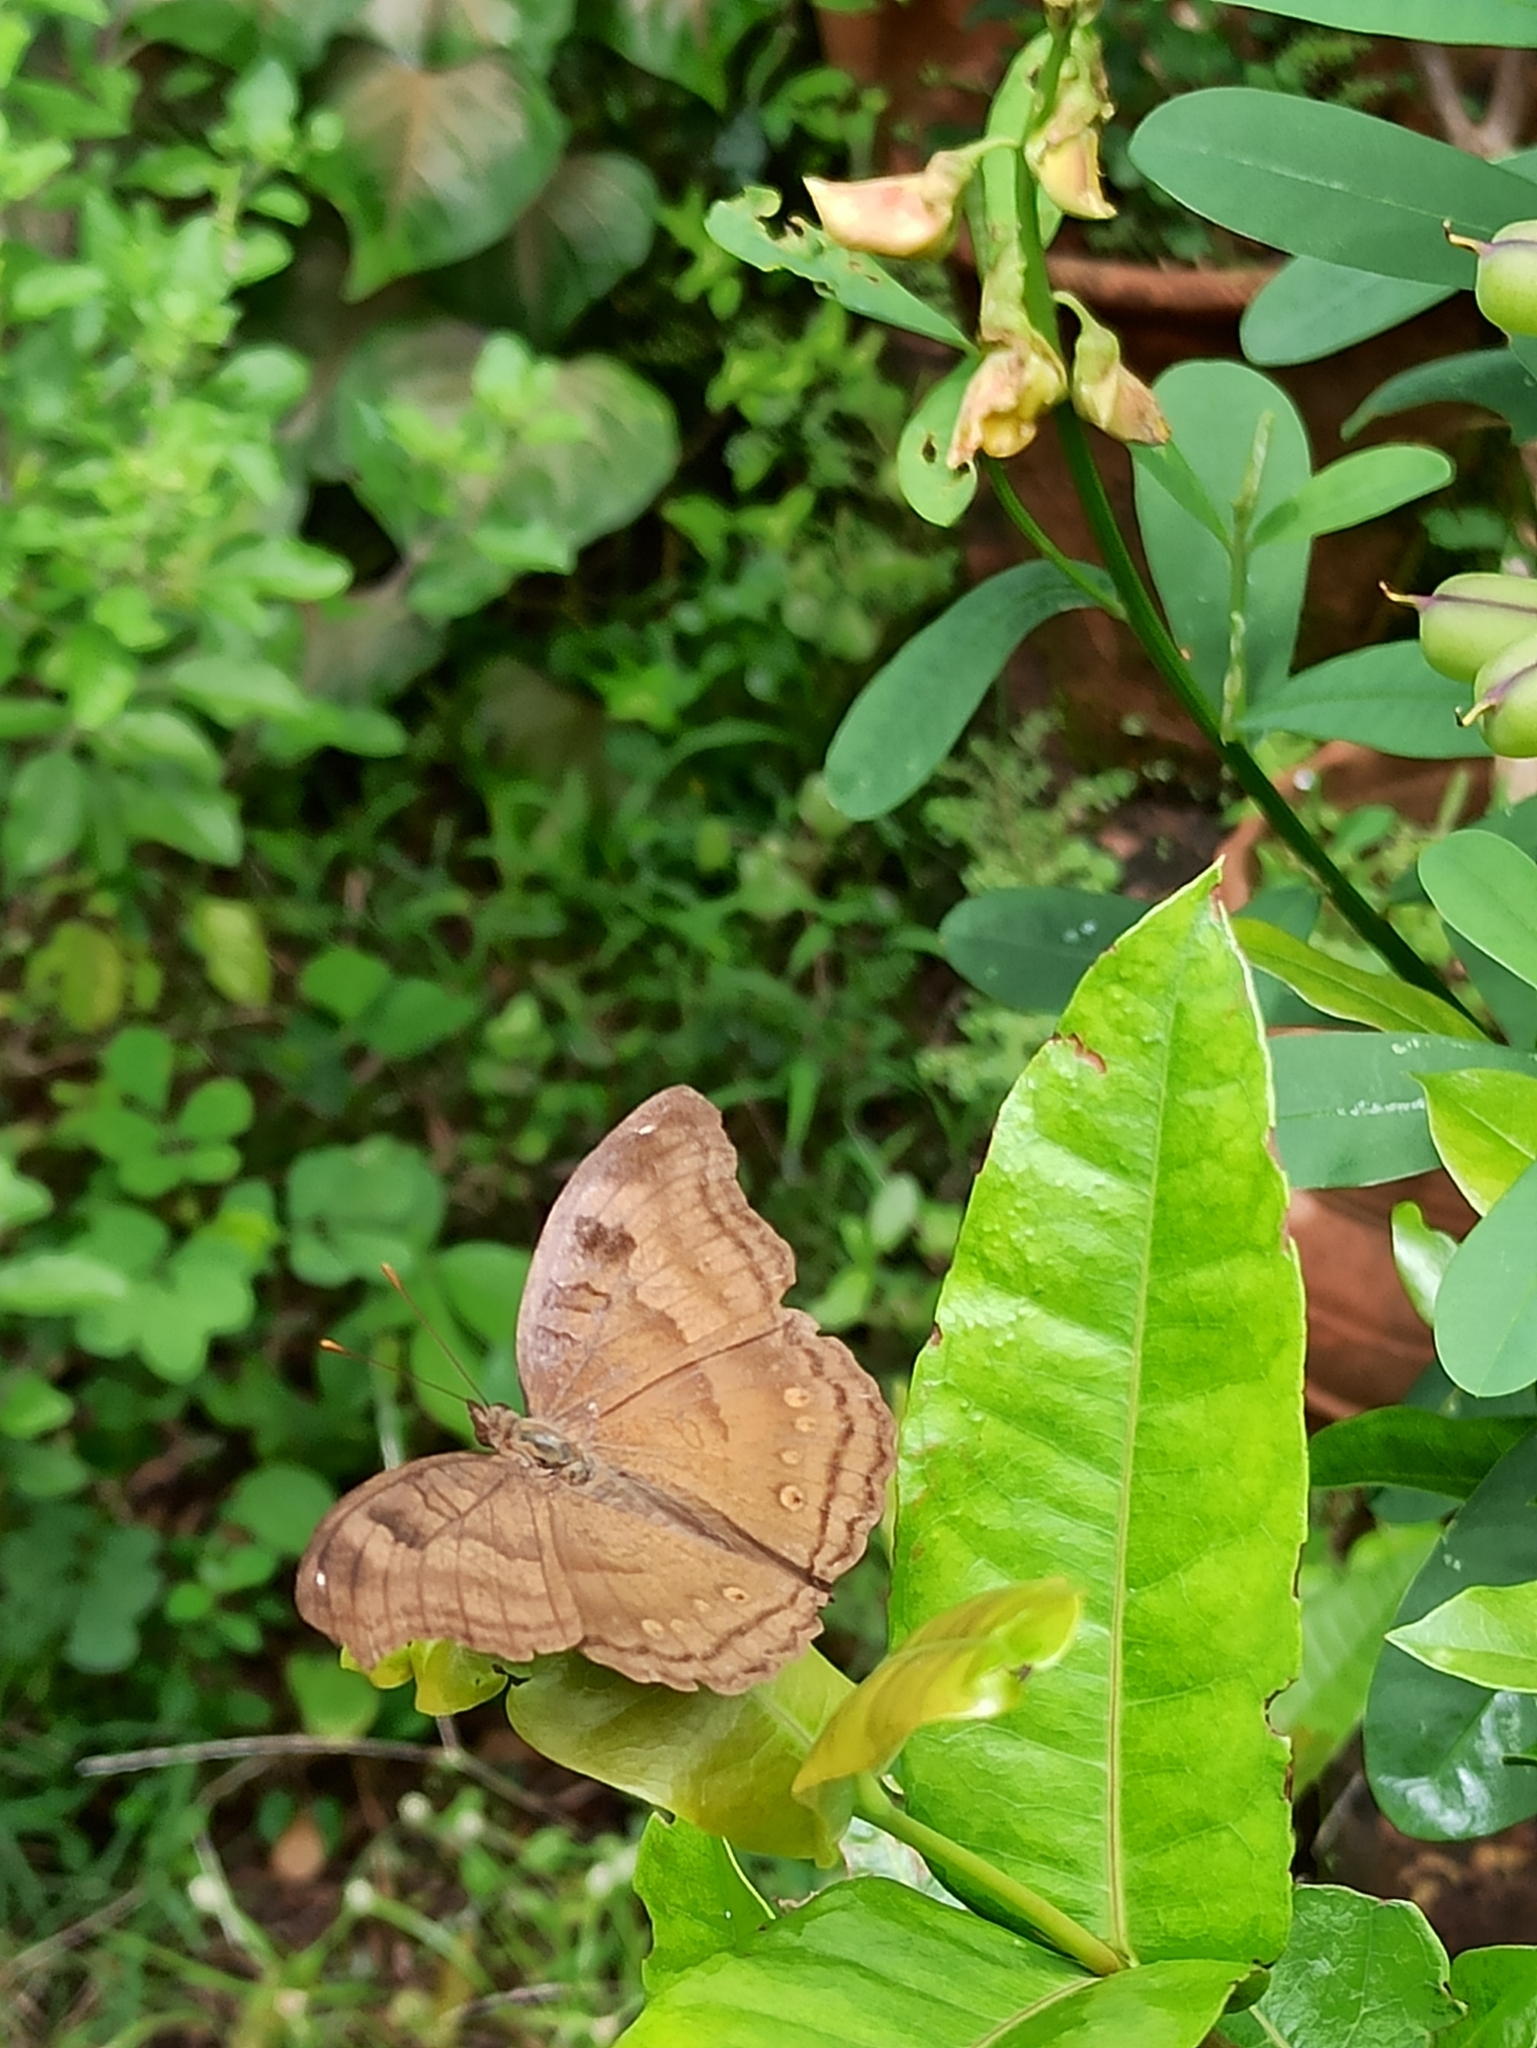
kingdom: Animalia
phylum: Arthropoda
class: Insecta
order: Lepidoptera
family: Nymphalidae
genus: Junonia
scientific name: Junonia iphita
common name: Chocolate pansy
